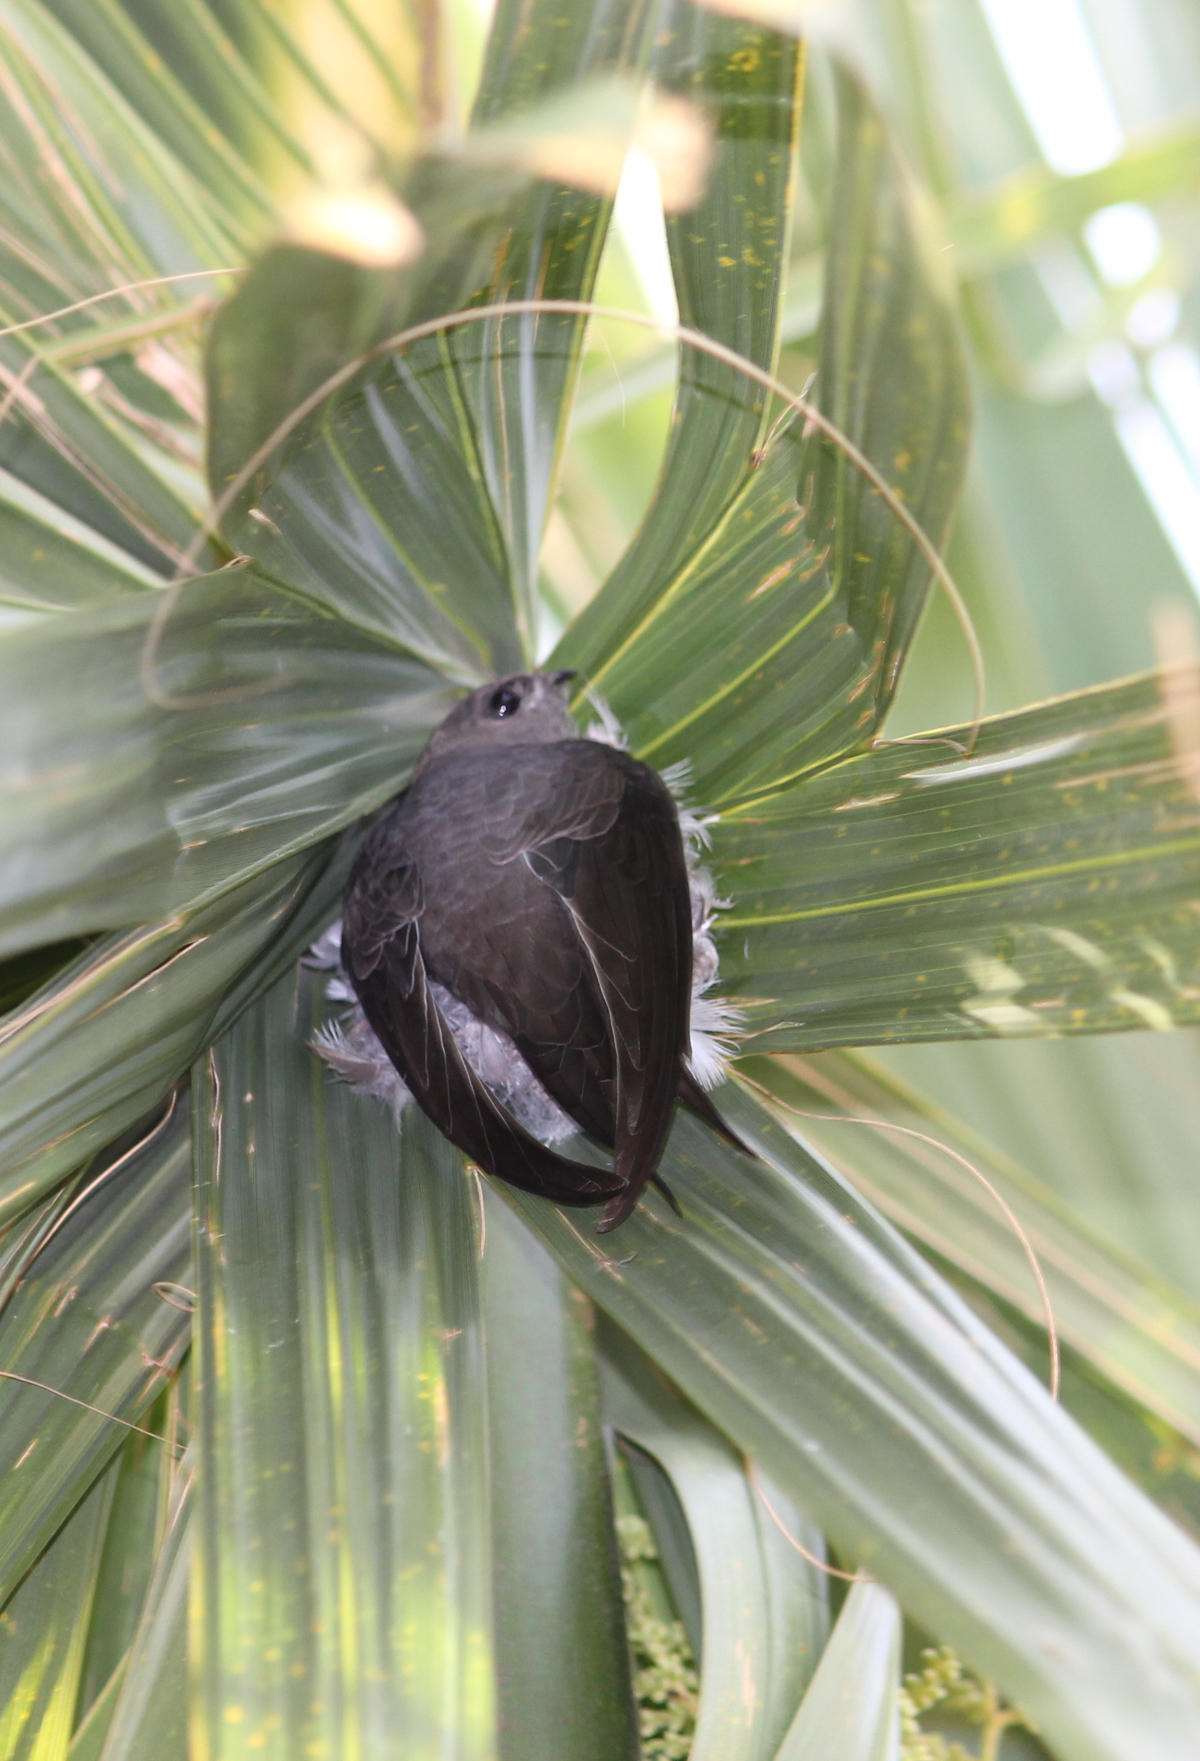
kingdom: Animalia
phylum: Chordata
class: Aves
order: Apodiformes
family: Apodidae
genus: Cypsiurus
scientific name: Cypsiurus parvus
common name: African palm swift
